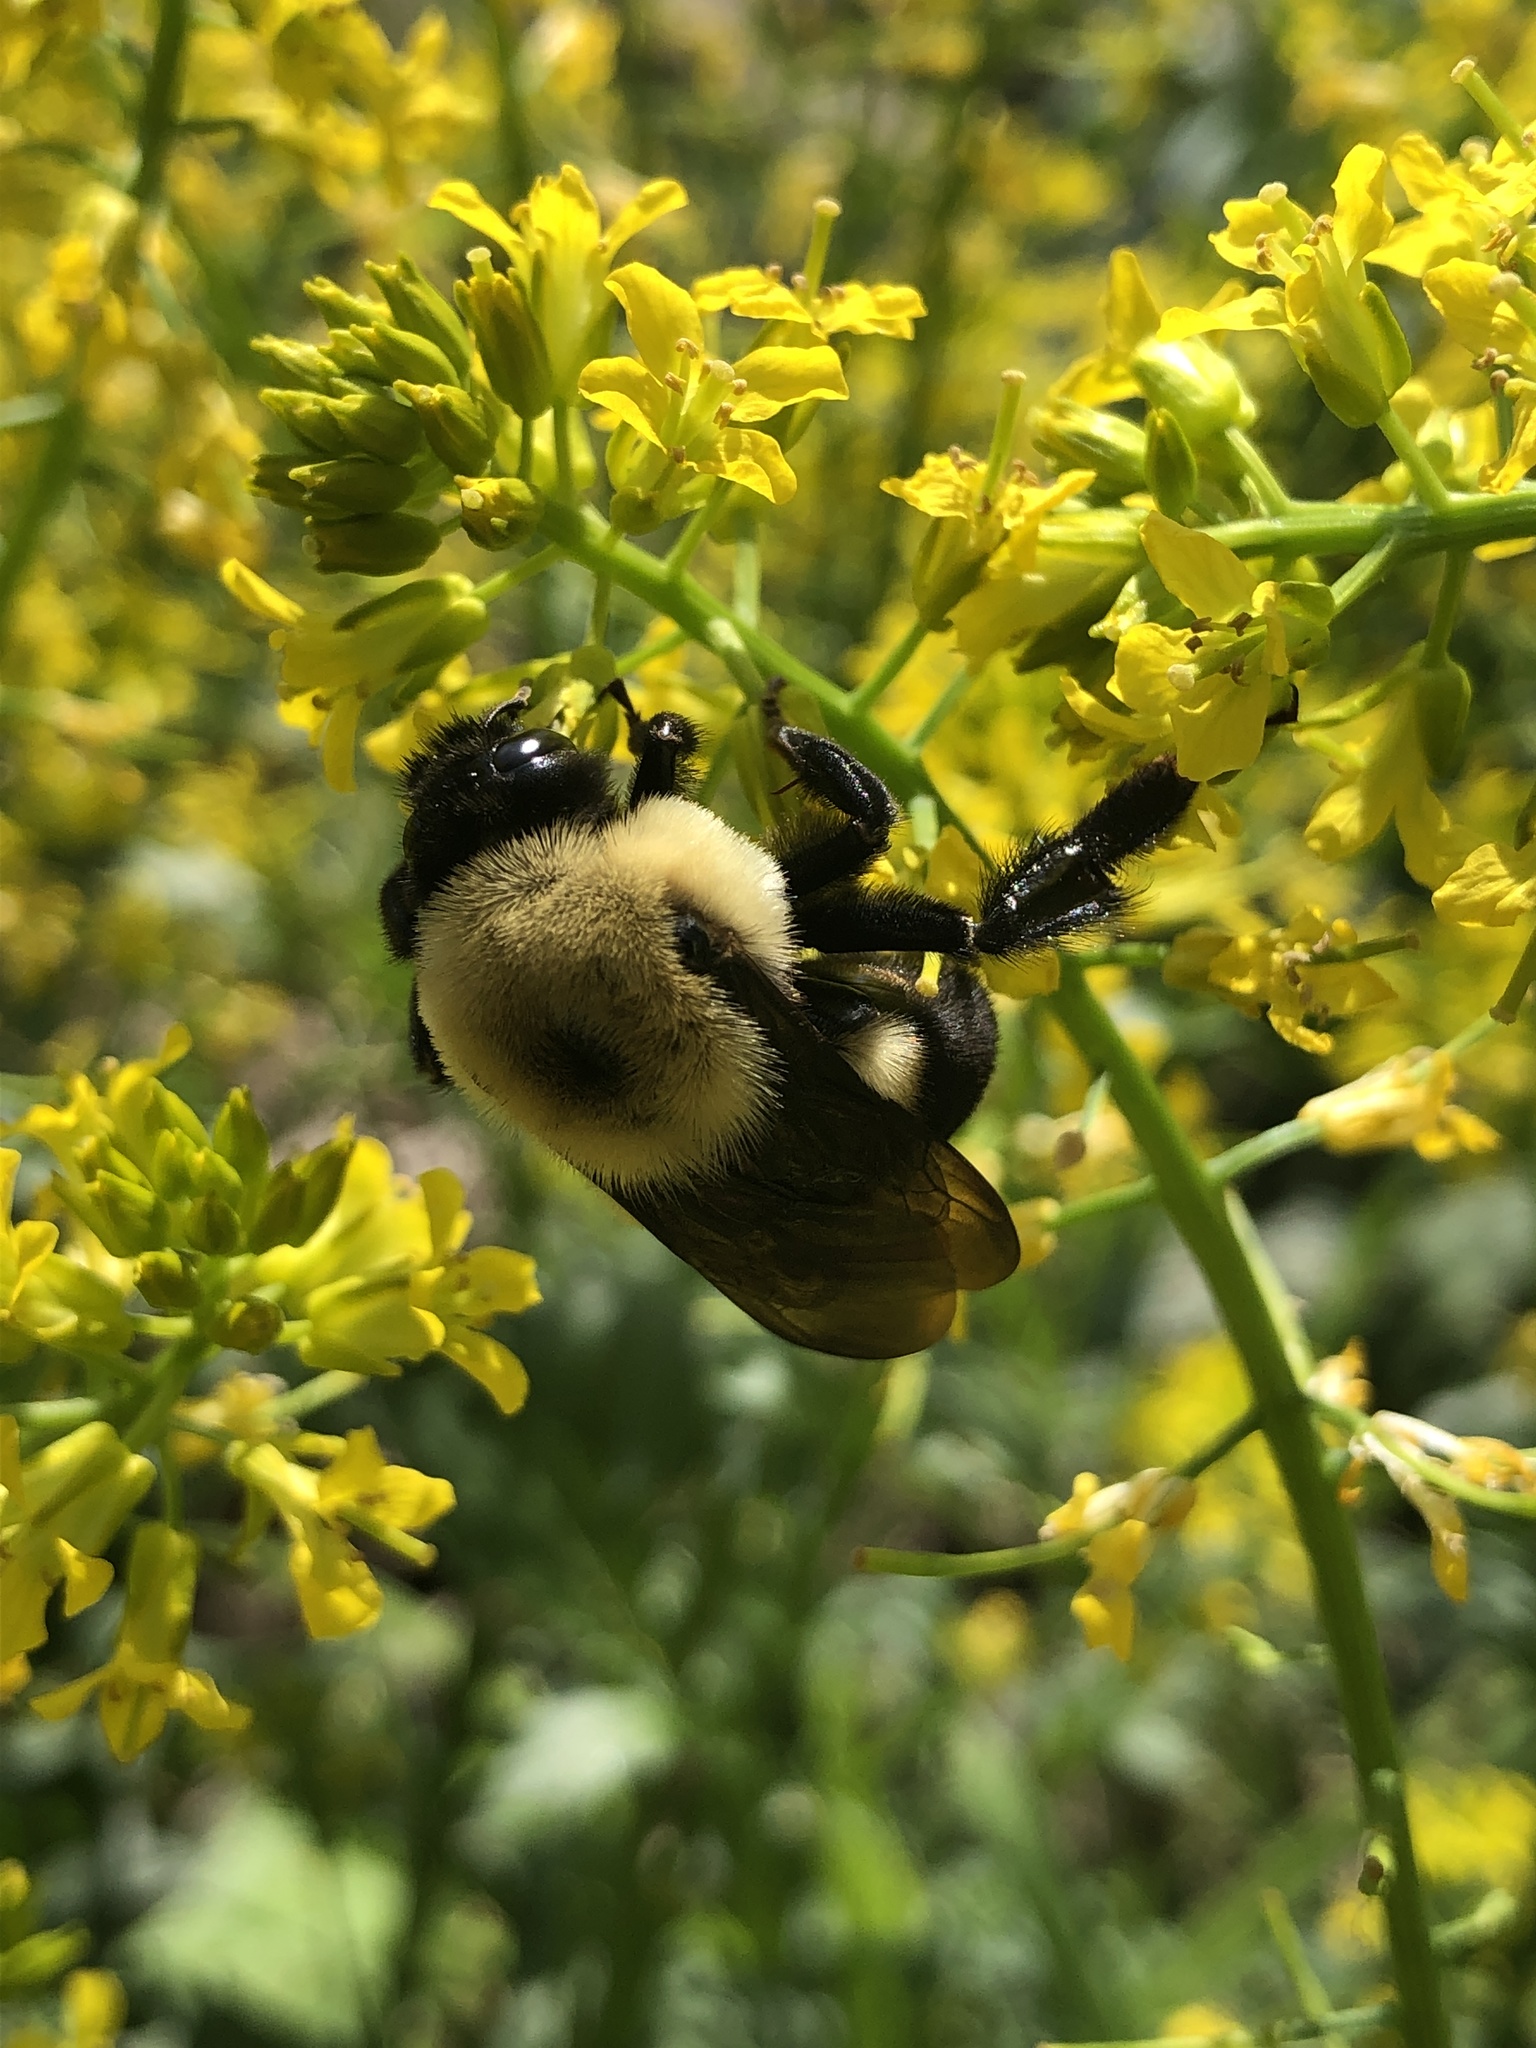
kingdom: Animalia
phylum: Arthropoda
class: Insecta
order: Hymenoptera
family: Apidae
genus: Bombus
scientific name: Bombus griseocollis
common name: Brown-belted bumble bee
